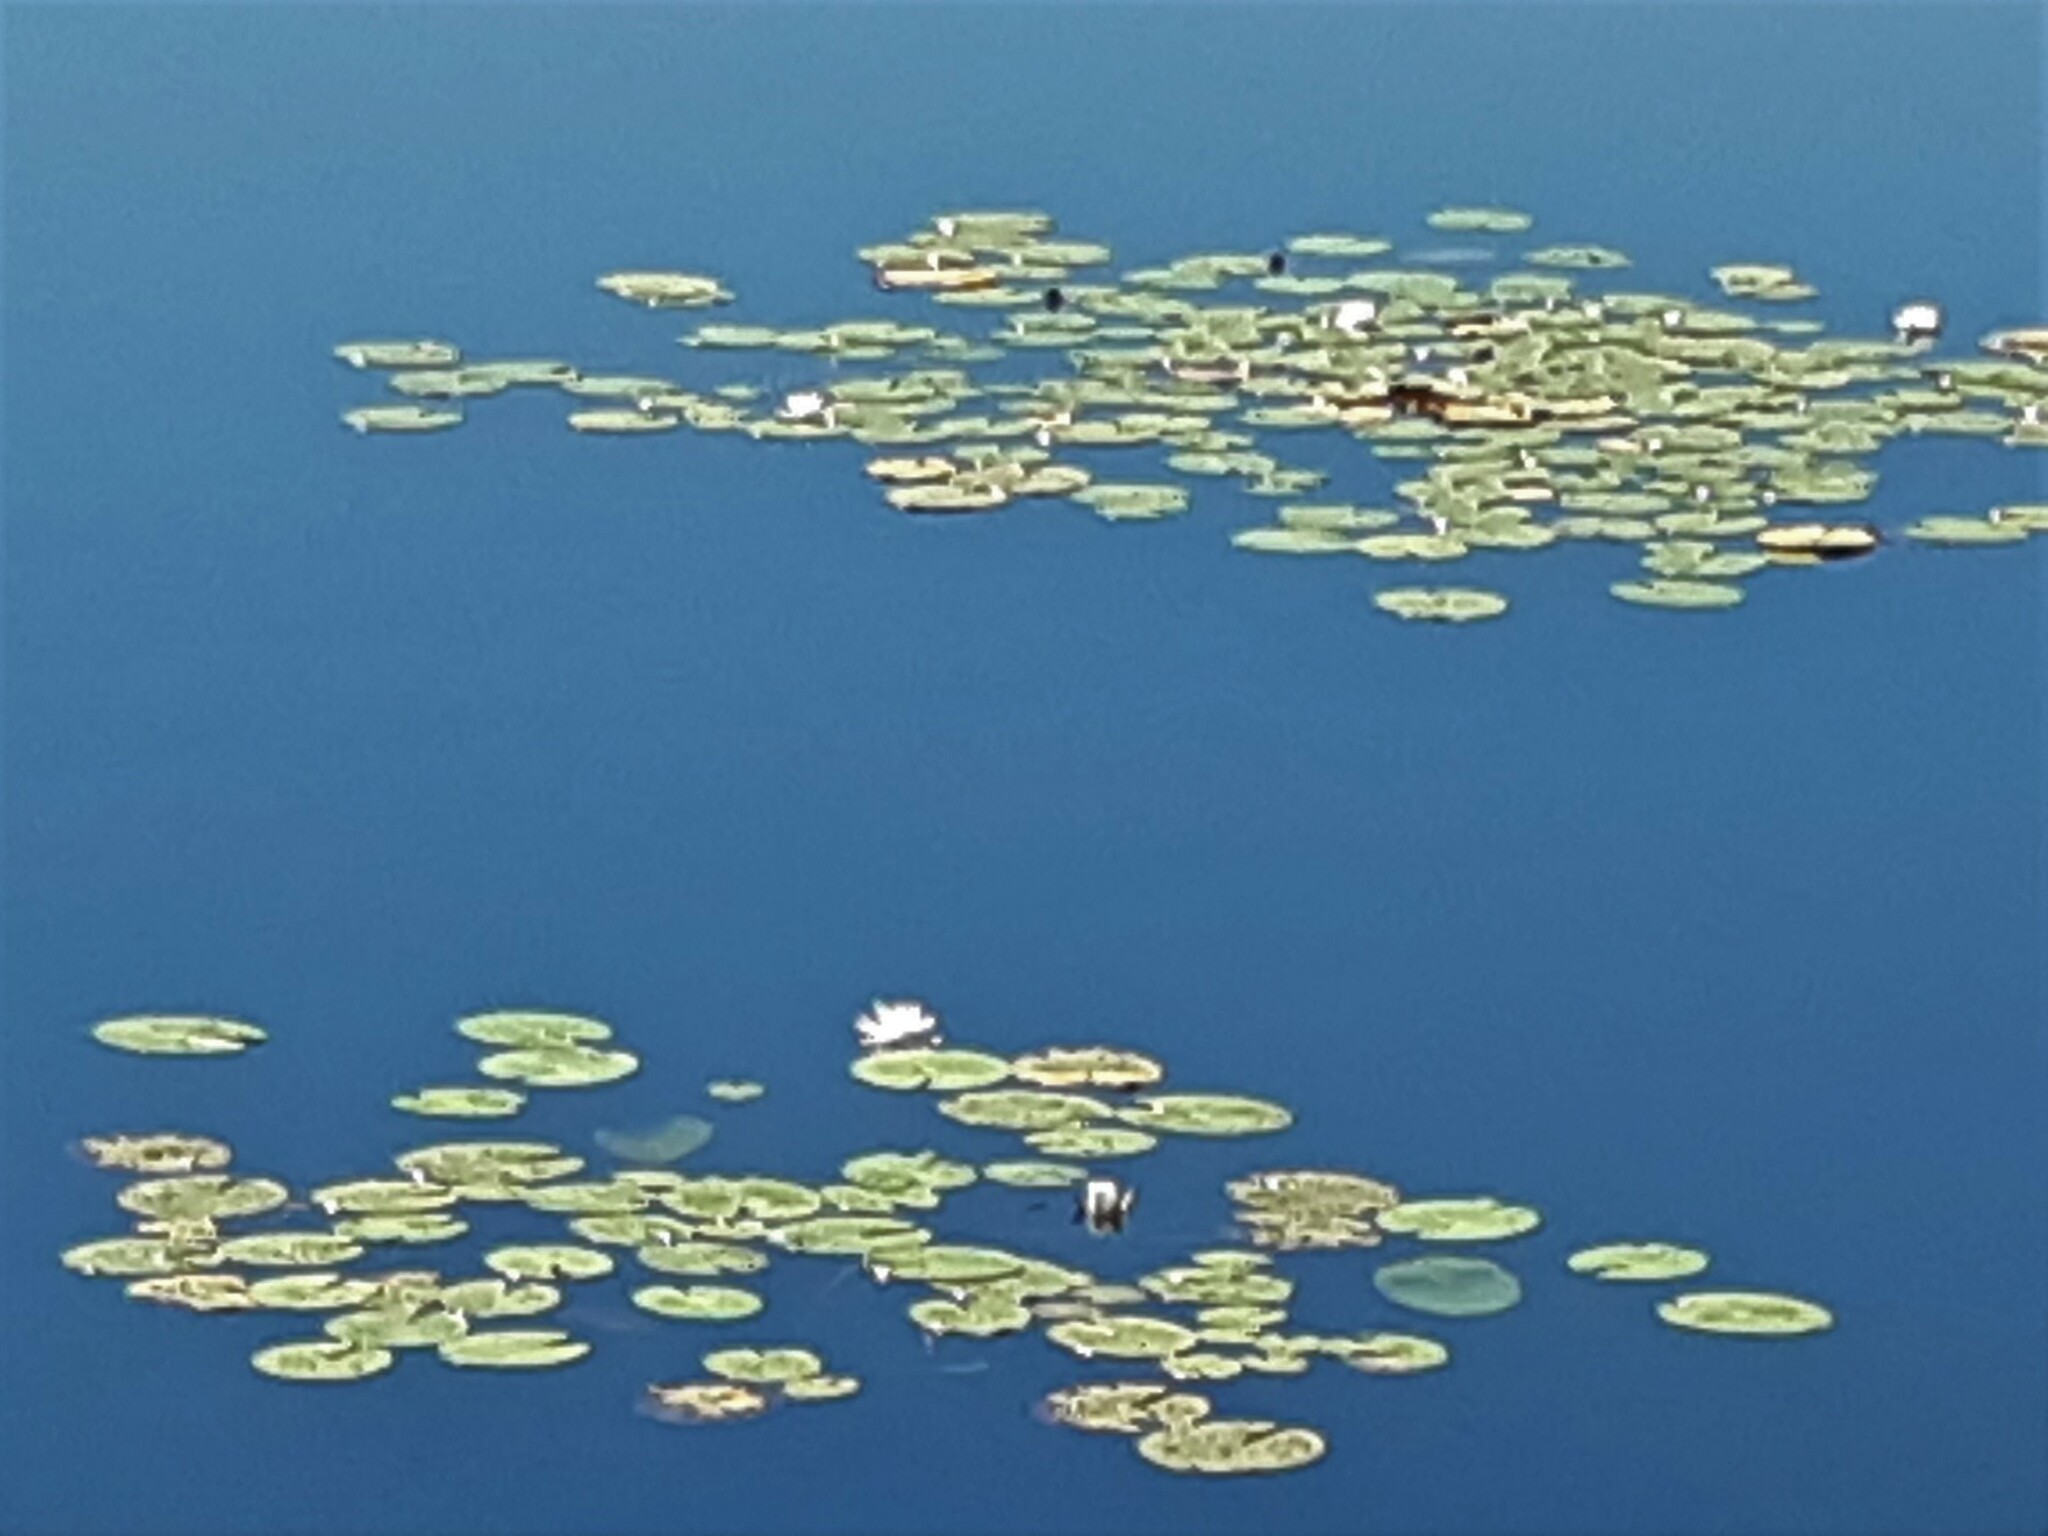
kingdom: Plantae
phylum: Tracheophyta
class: Magnoliopsida
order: Nymphaeales
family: Nymphaeaceae
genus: Nymphaea
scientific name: Nymphaea alba
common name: White water-lily
